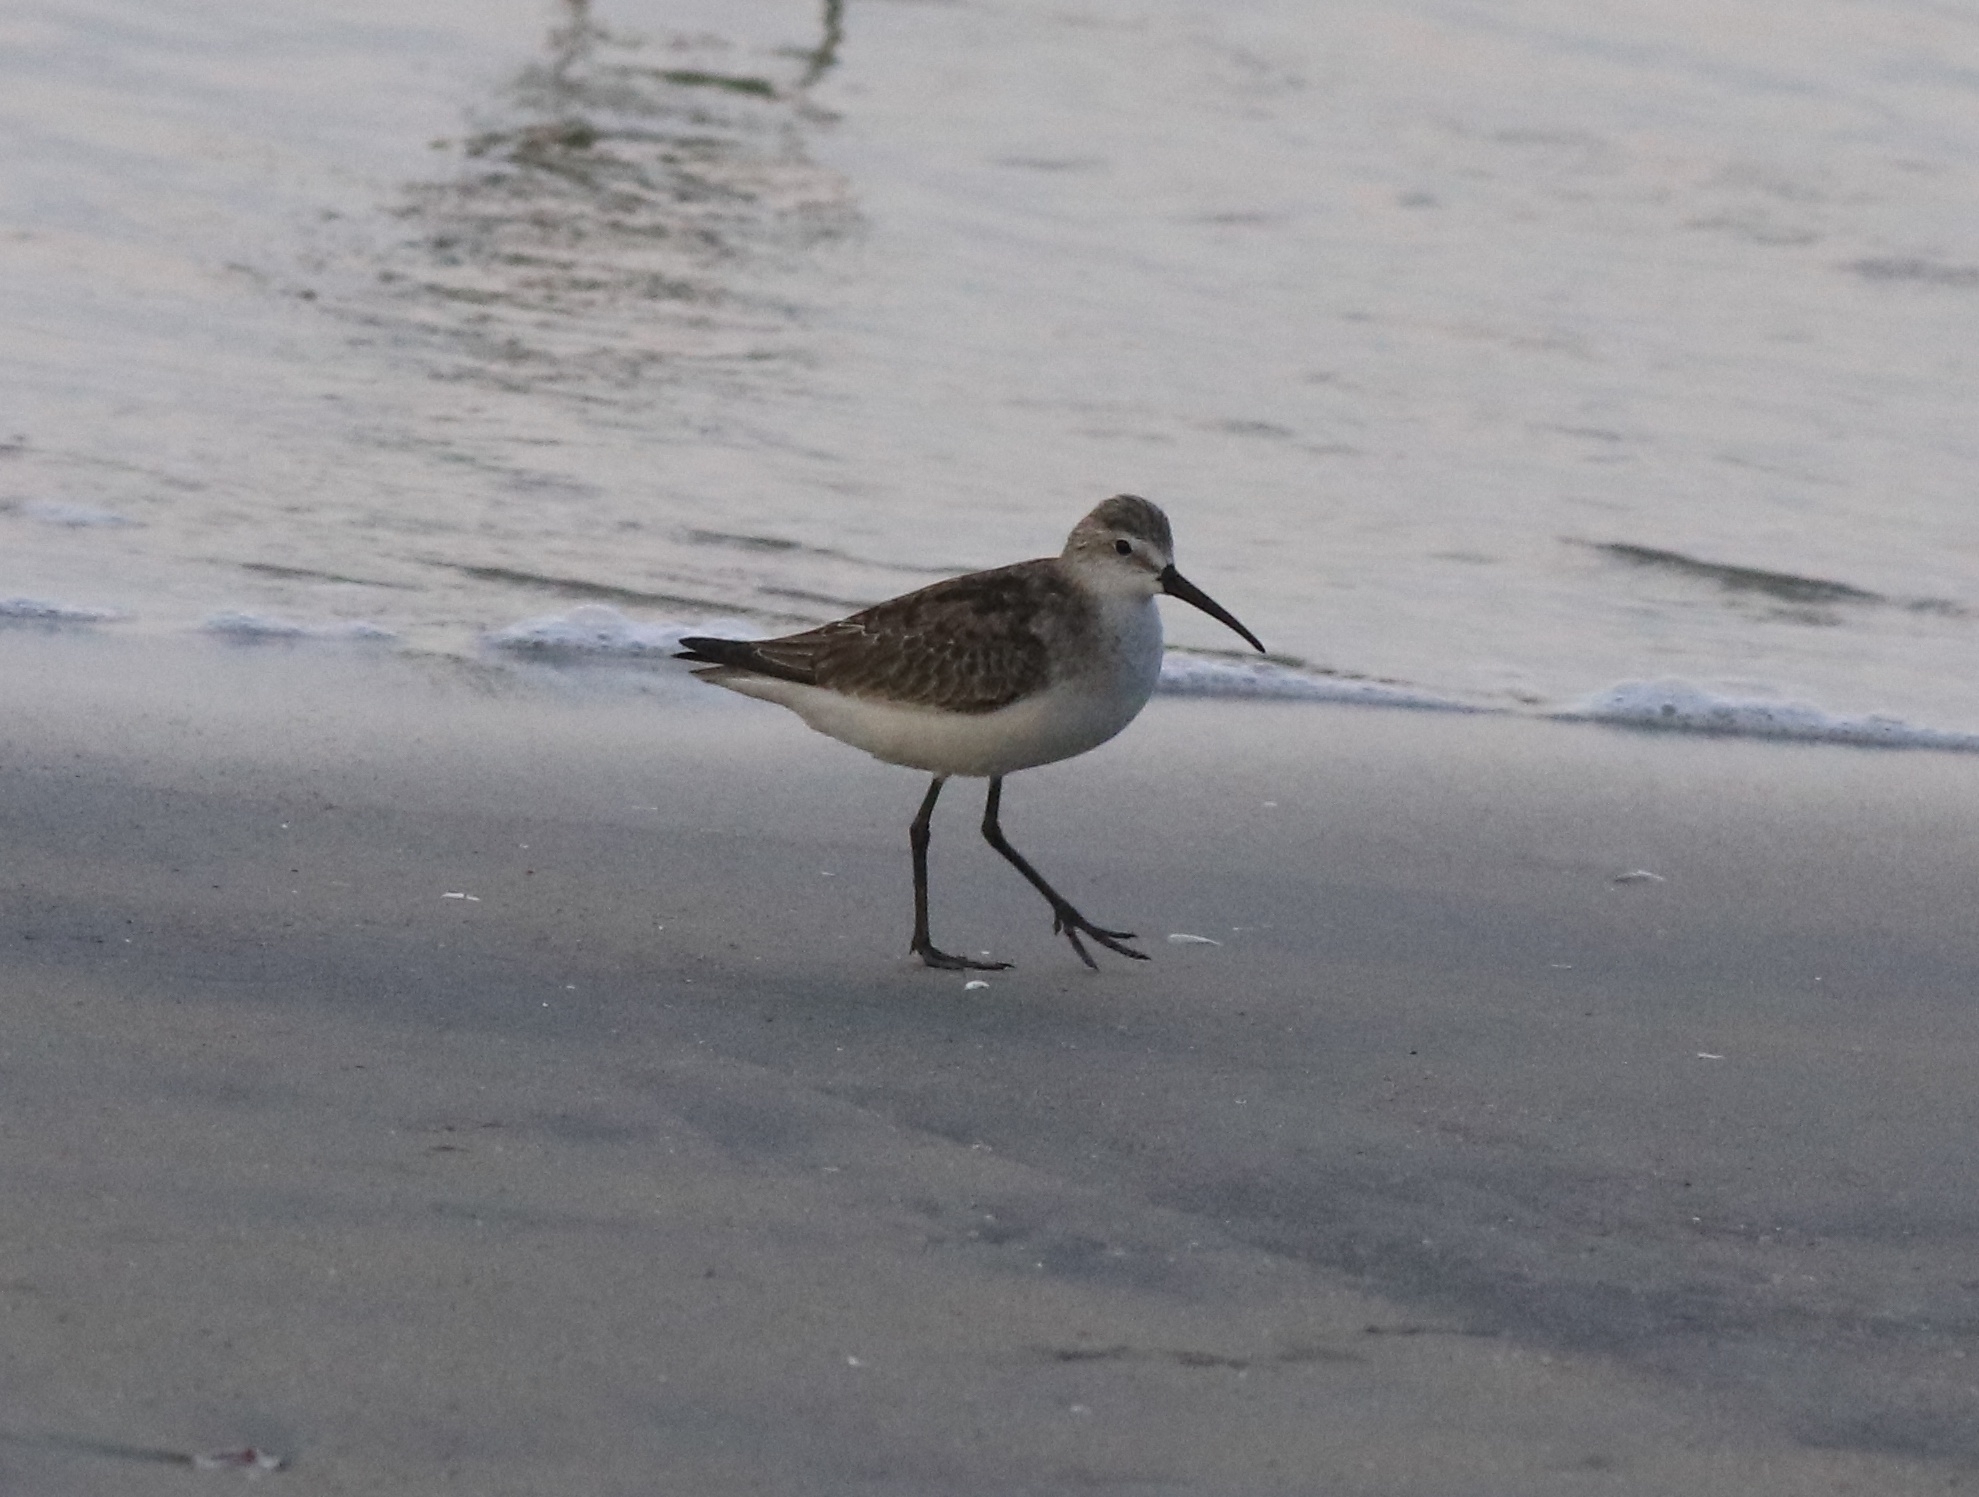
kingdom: Animalia
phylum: Chordata
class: Aves
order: Charadriiformes
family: Scolopacidae
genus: Calidris
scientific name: Calidris ferruginea
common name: Curlew sandpiper
